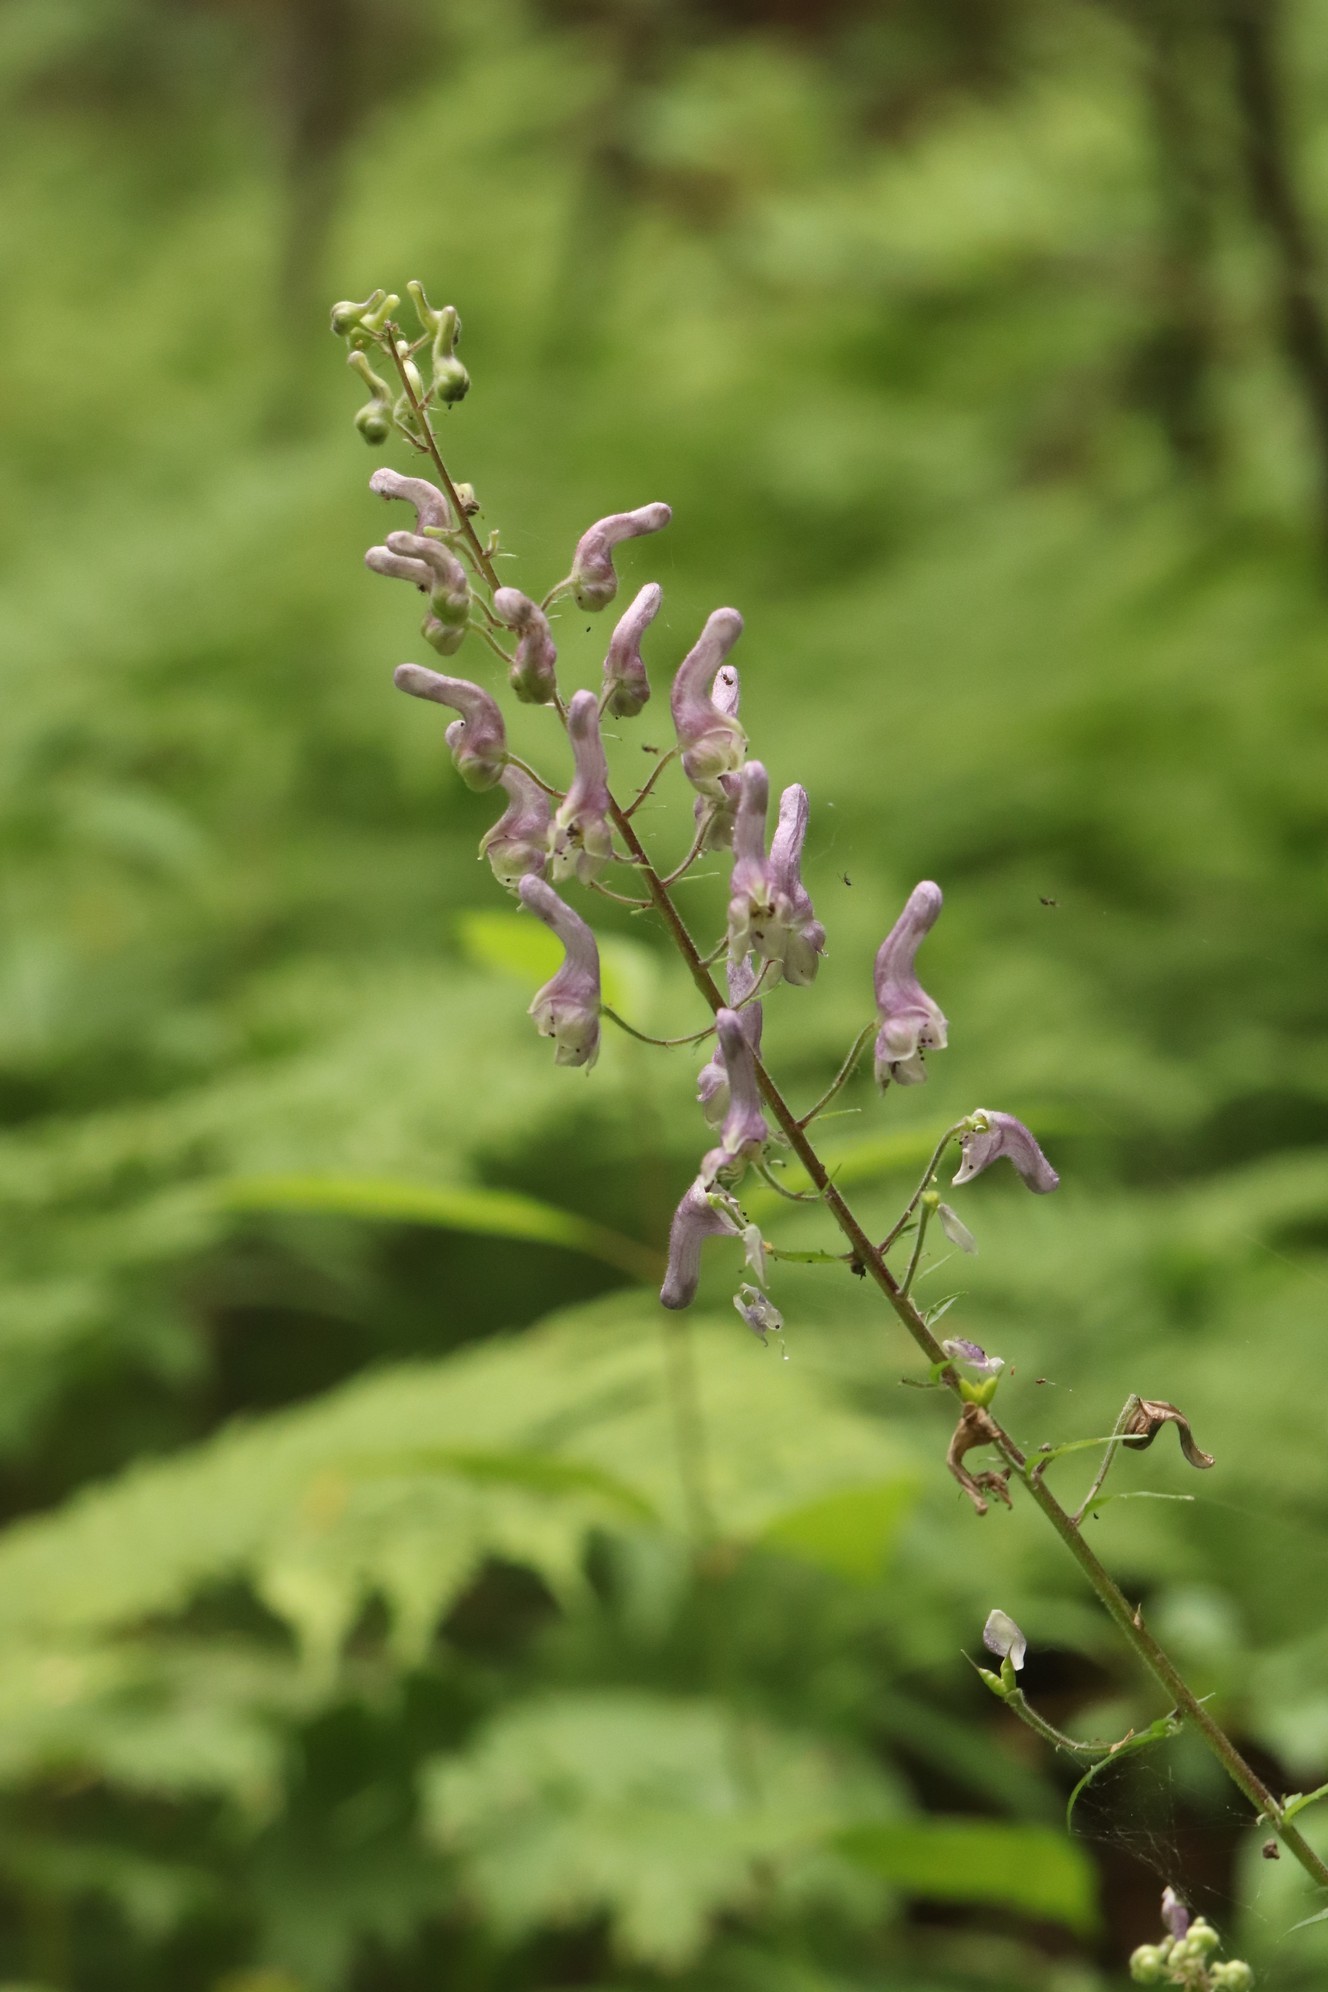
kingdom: Plantae
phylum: Tracheophyta
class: Magnoliopsida
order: Ranunculales
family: Ranunculaceae
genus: Aconitum
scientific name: Aconitum septentrionale
